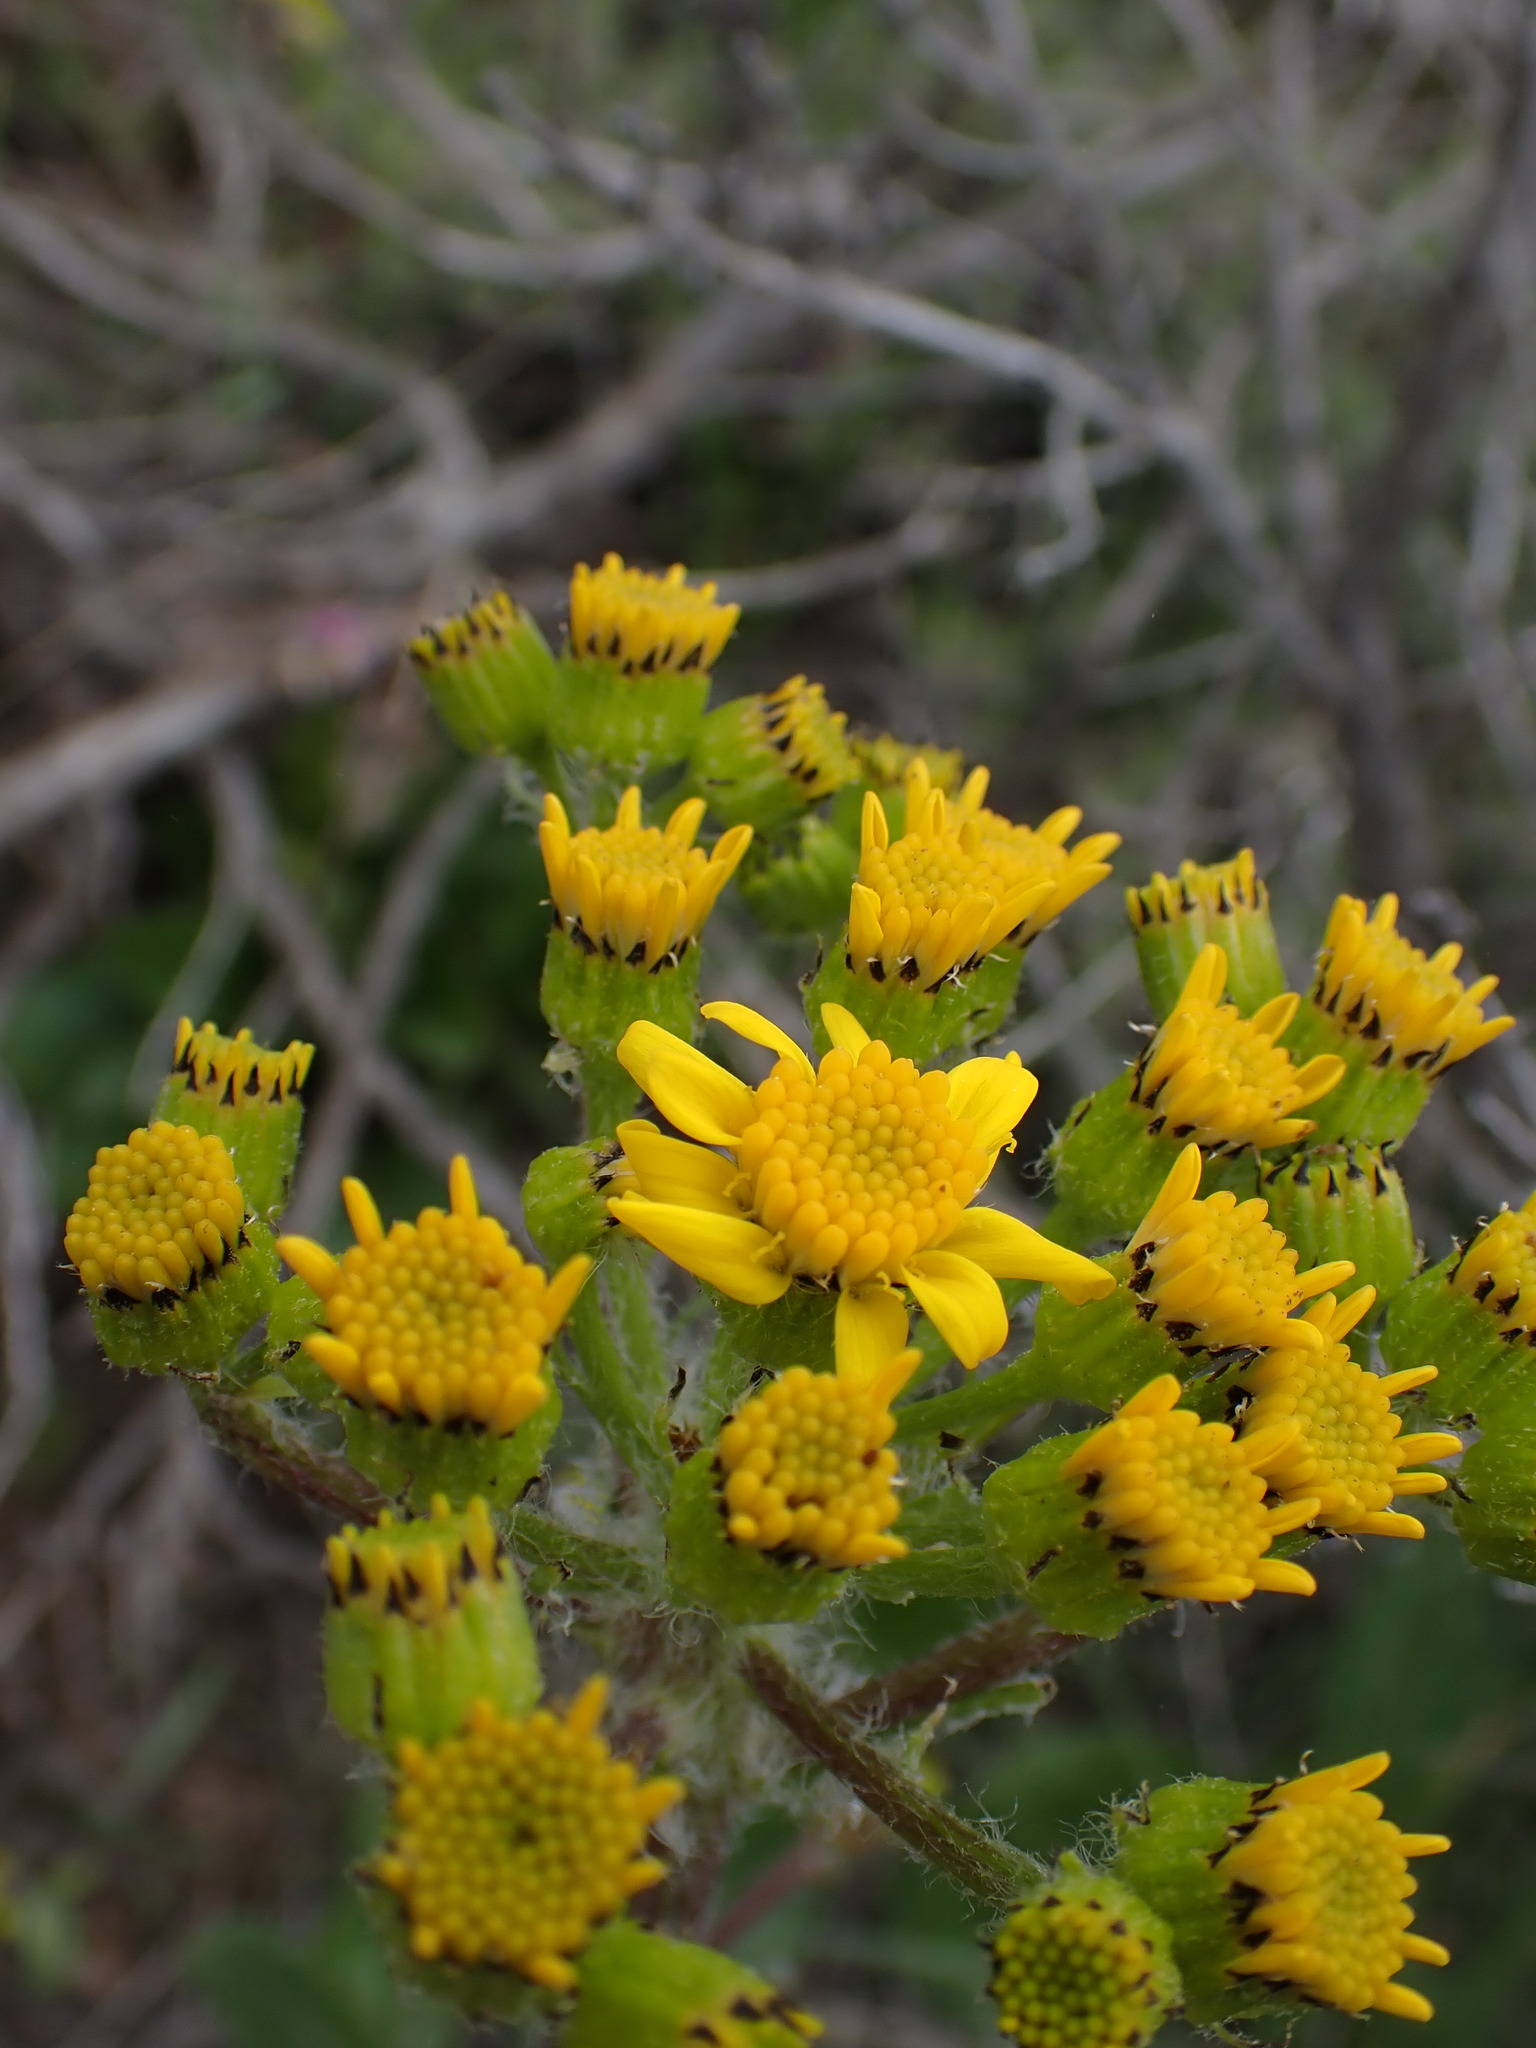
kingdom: Plantae
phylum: Tracheophyta
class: Magnoliopsida
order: Asterales
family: Asteraceae
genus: Senecio
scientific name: Senecio integerrimus
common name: Gaugeplant
